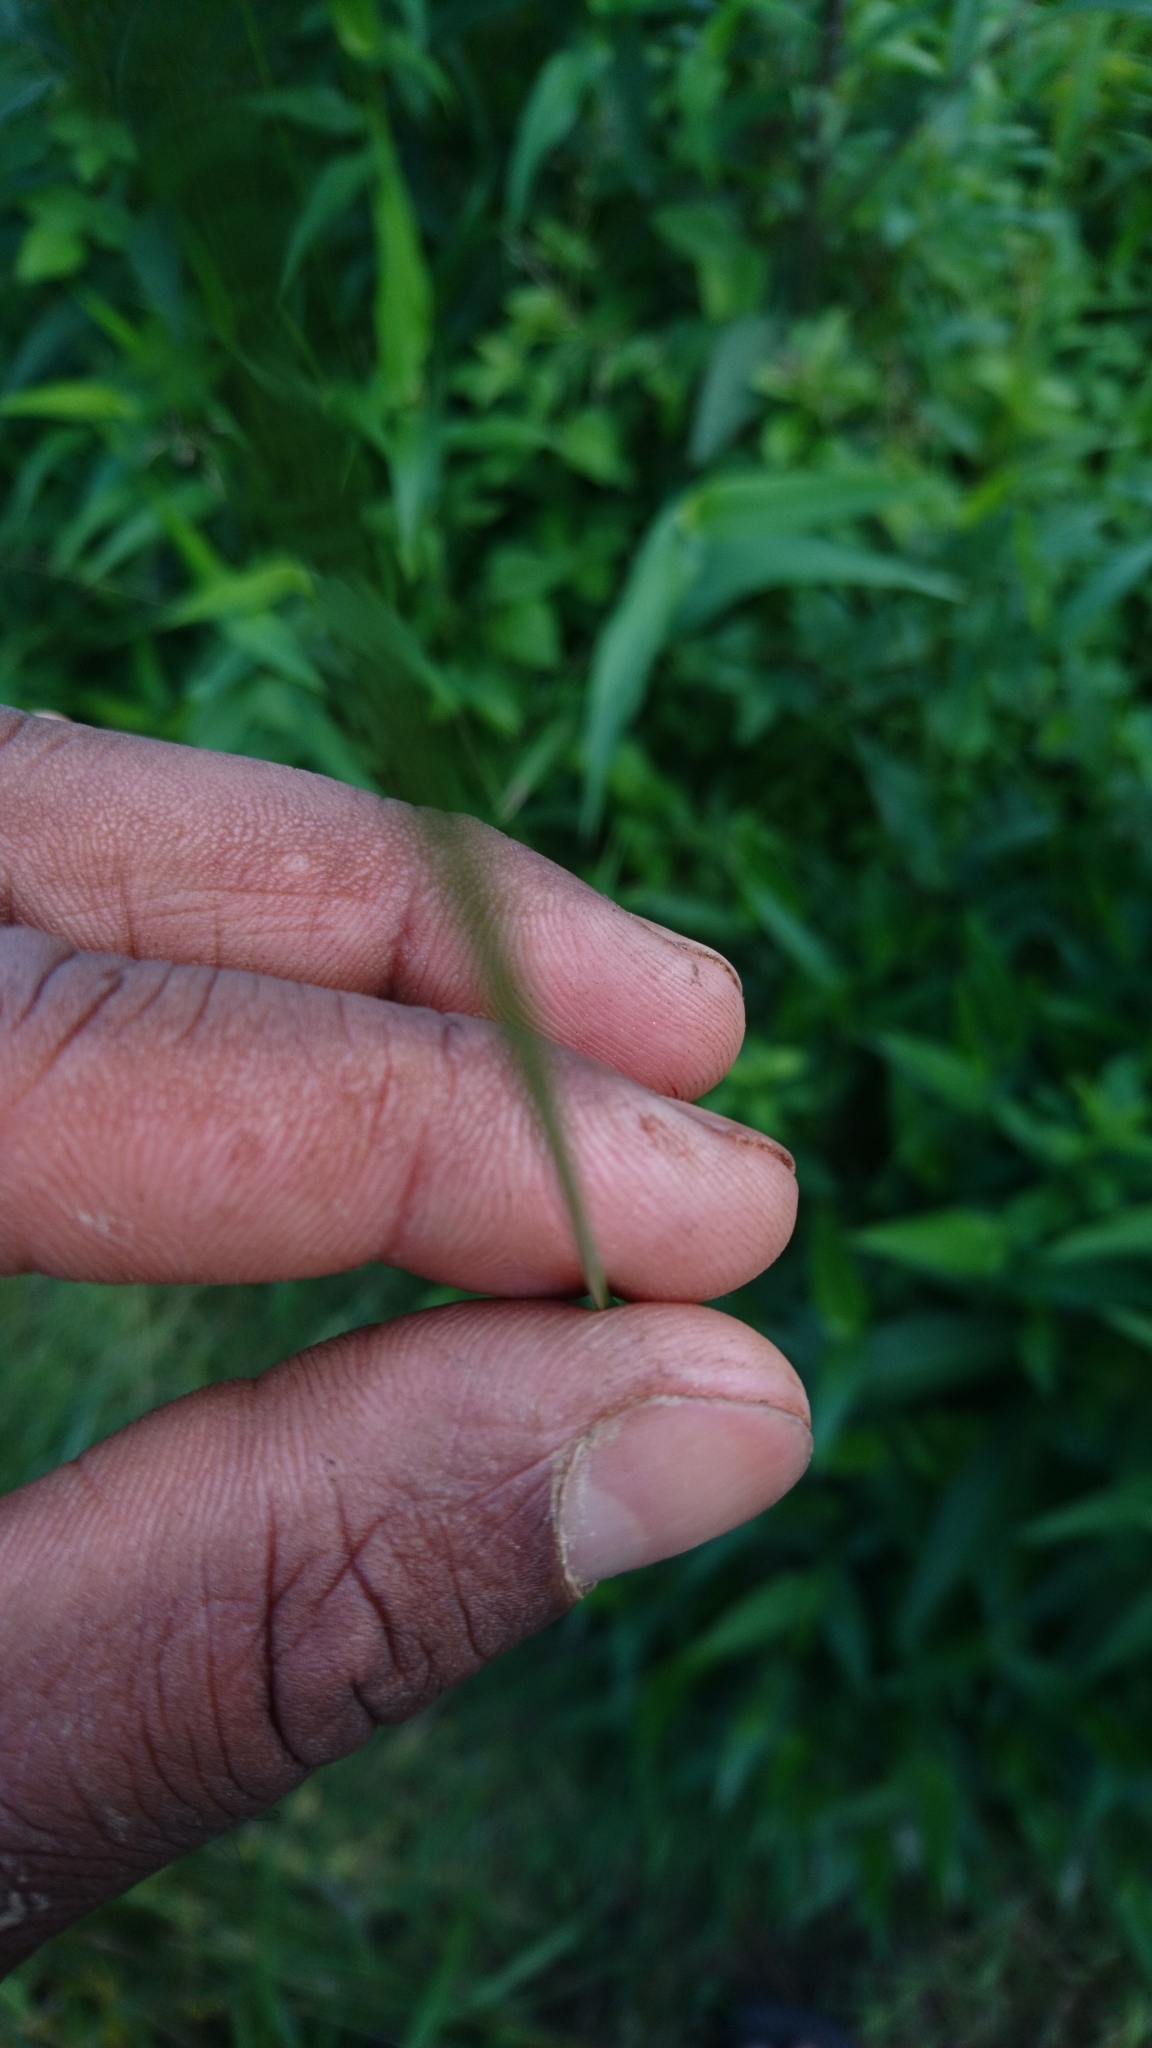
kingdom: Plantae
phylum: Tracheophyta
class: Liliopsida
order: Poales
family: Juncaceae
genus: Juncus
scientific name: Juncus tenuis
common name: Slender rush
